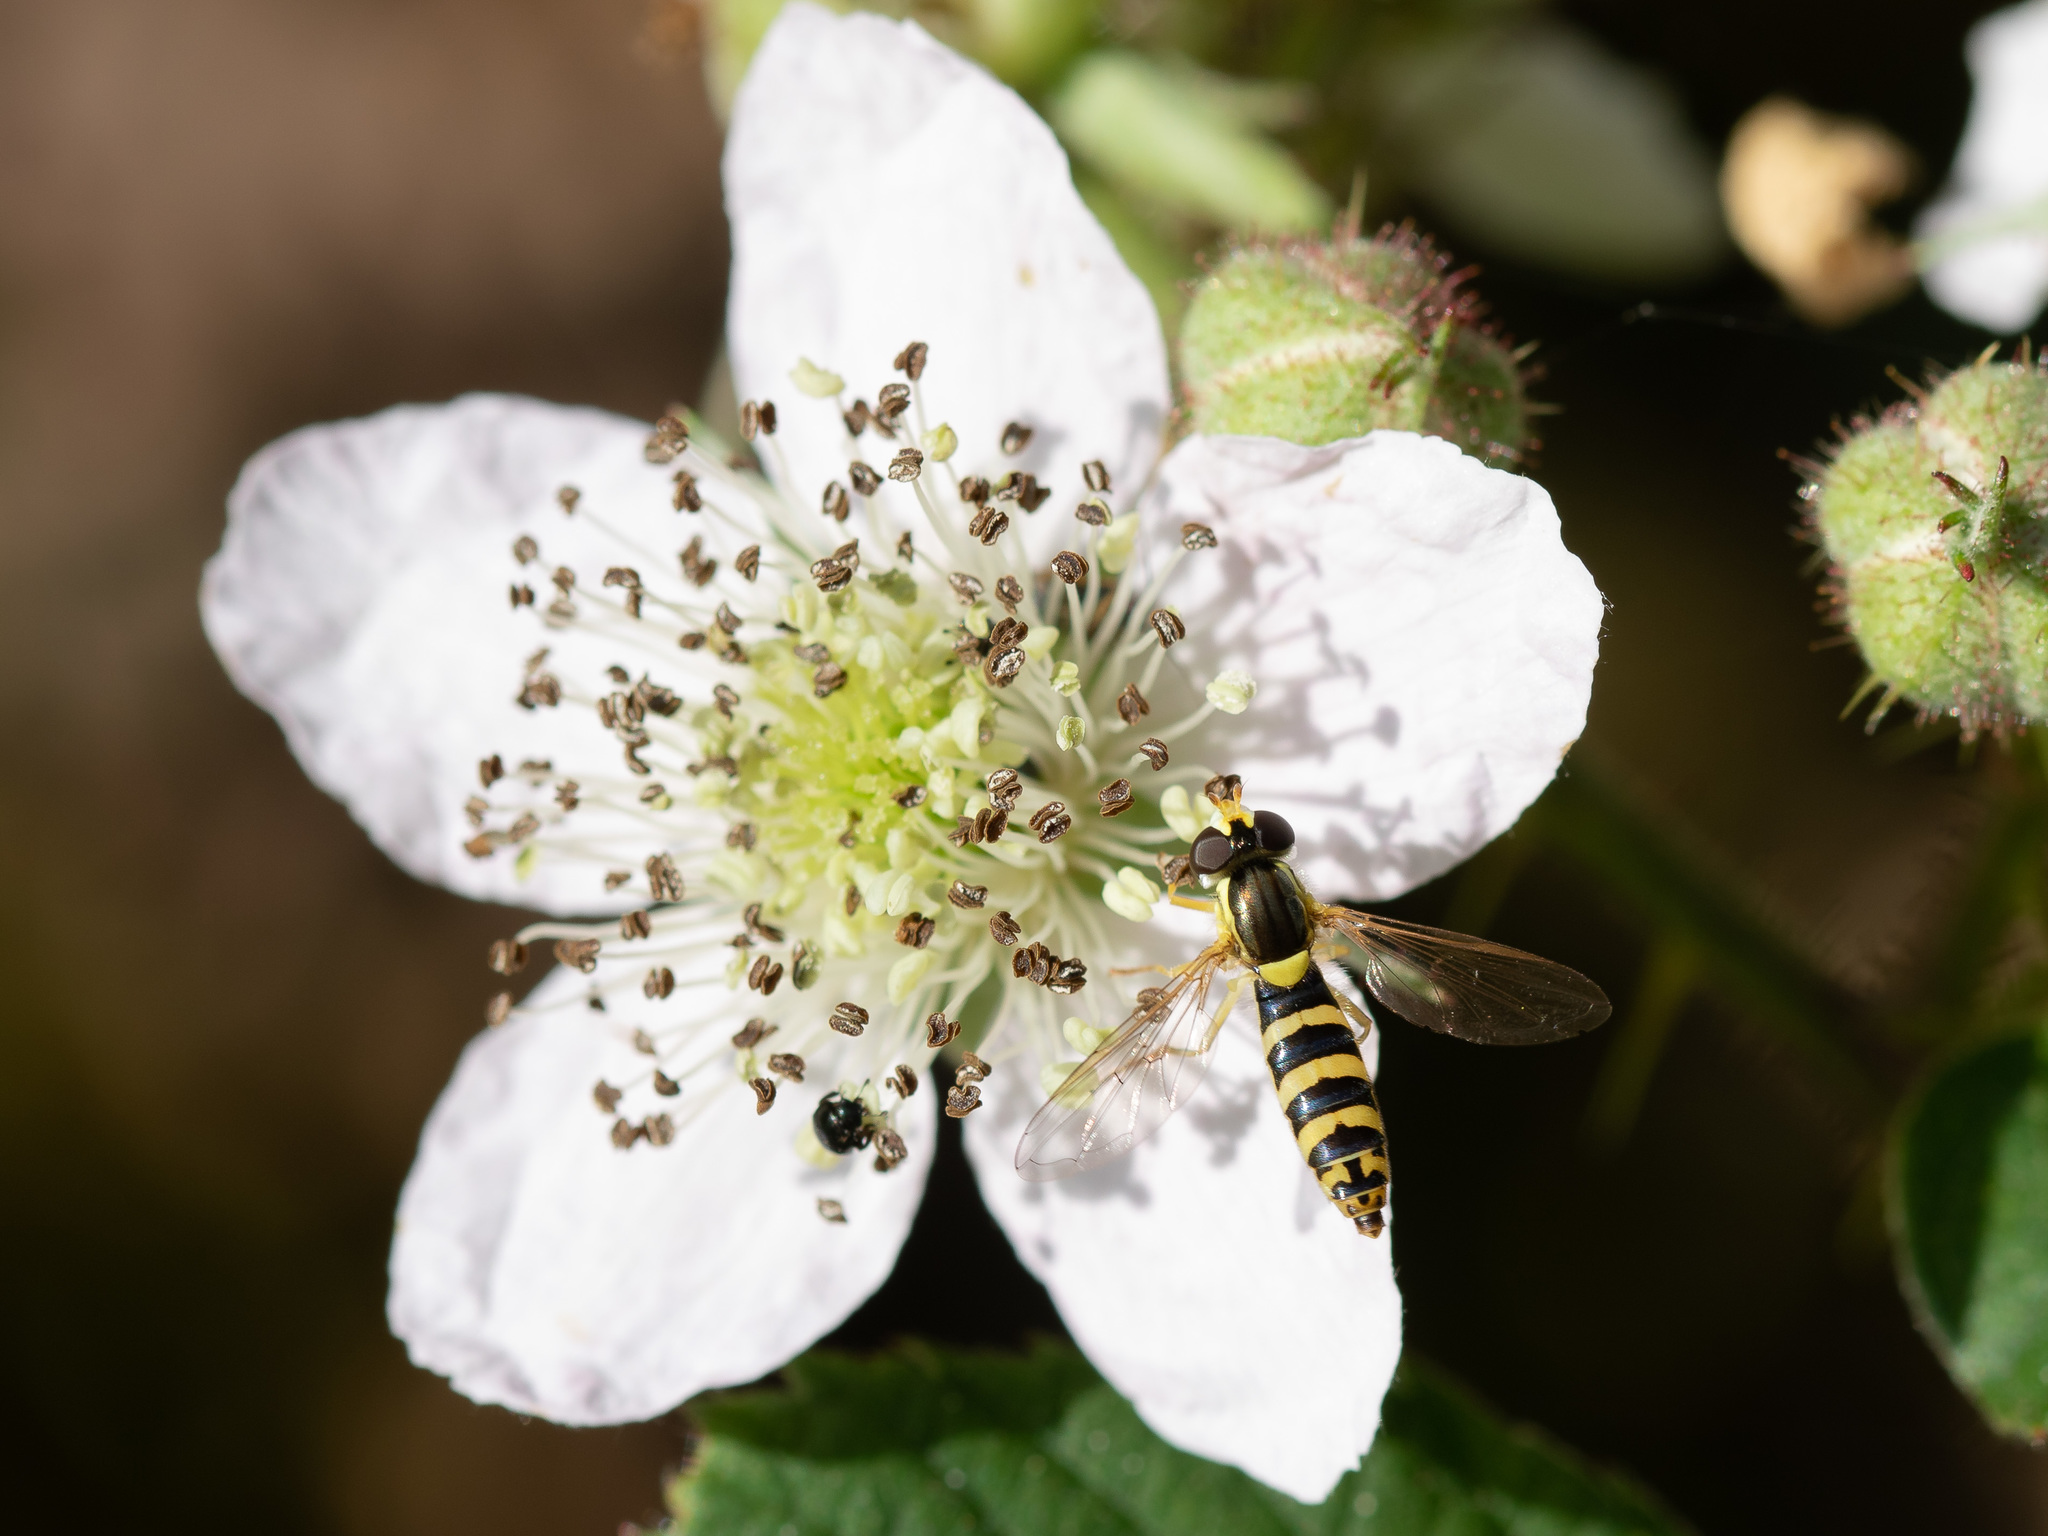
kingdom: Animalia
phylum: Arthropoda
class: Insecta
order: Diptera
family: Syrphidae
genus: Sphaerophoria
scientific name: Sphaerophoria scripta
